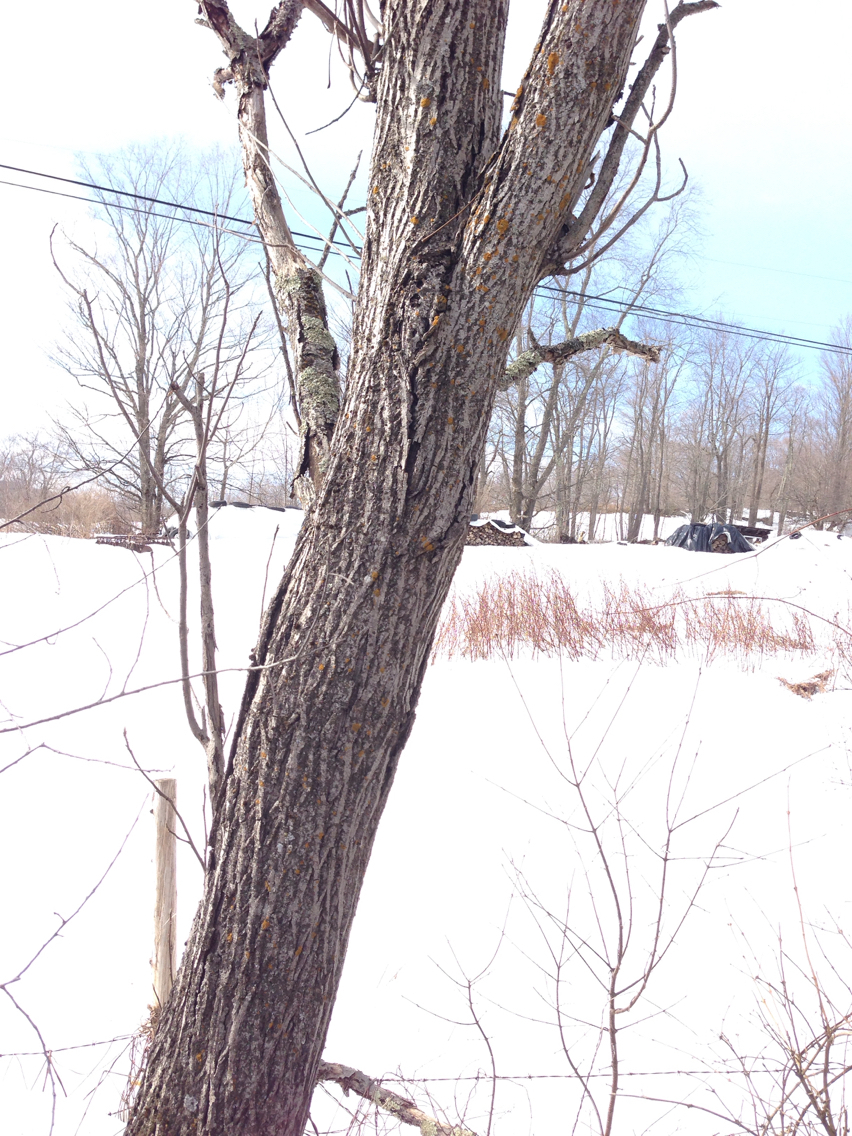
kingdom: Plantae
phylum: Tracheophyta
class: Magnoliopsida
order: Fagales
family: Juglandaceae
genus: Juglans
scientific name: Juglans cinerea
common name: Butternut
